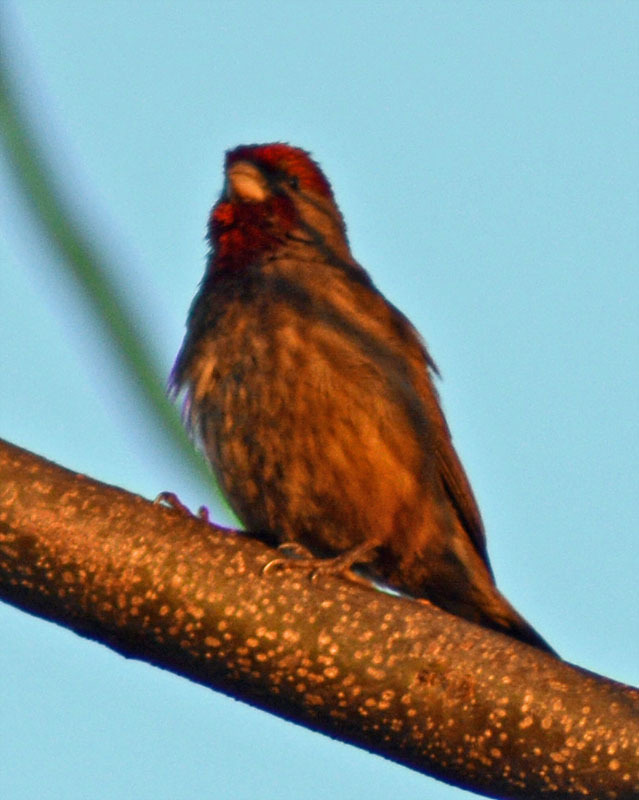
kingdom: Animalia
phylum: Chordata
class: Aves
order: Passeriformes
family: Fringillidae
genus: Haemorhous
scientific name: Haemorhous mexicanus
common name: House finch
